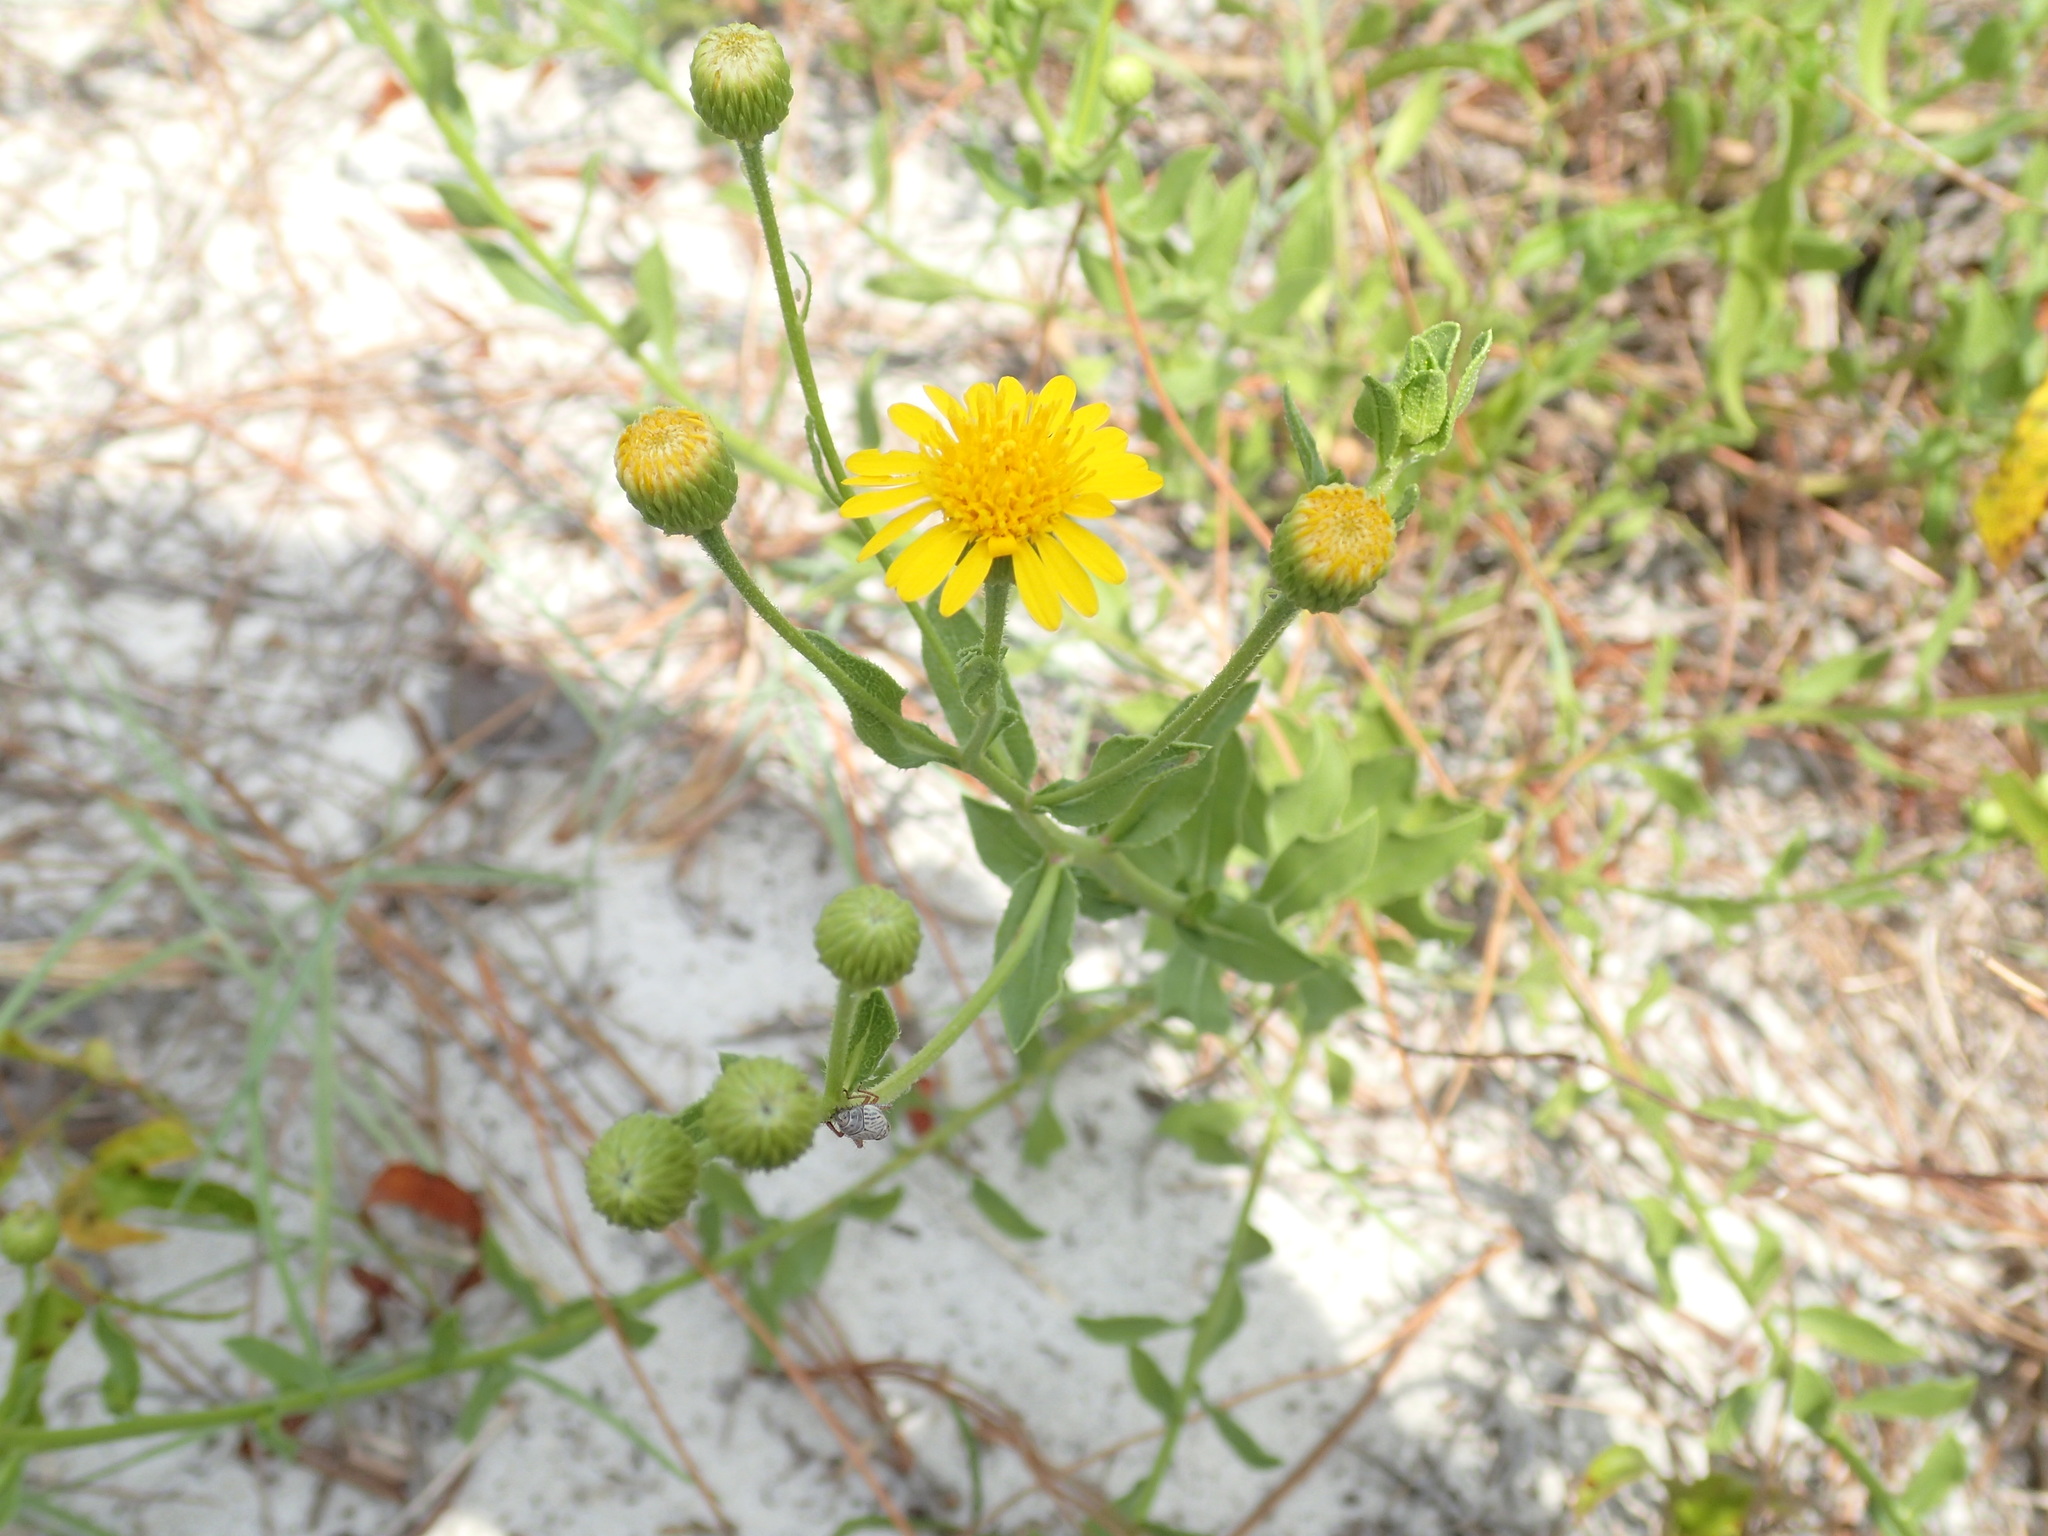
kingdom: Plantae
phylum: Tracheophyta
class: Magnoliopsida
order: Asterales
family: Asteraceae
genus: Heterotheca
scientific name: Heterotheca subaxillaris
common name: Camphorweed
